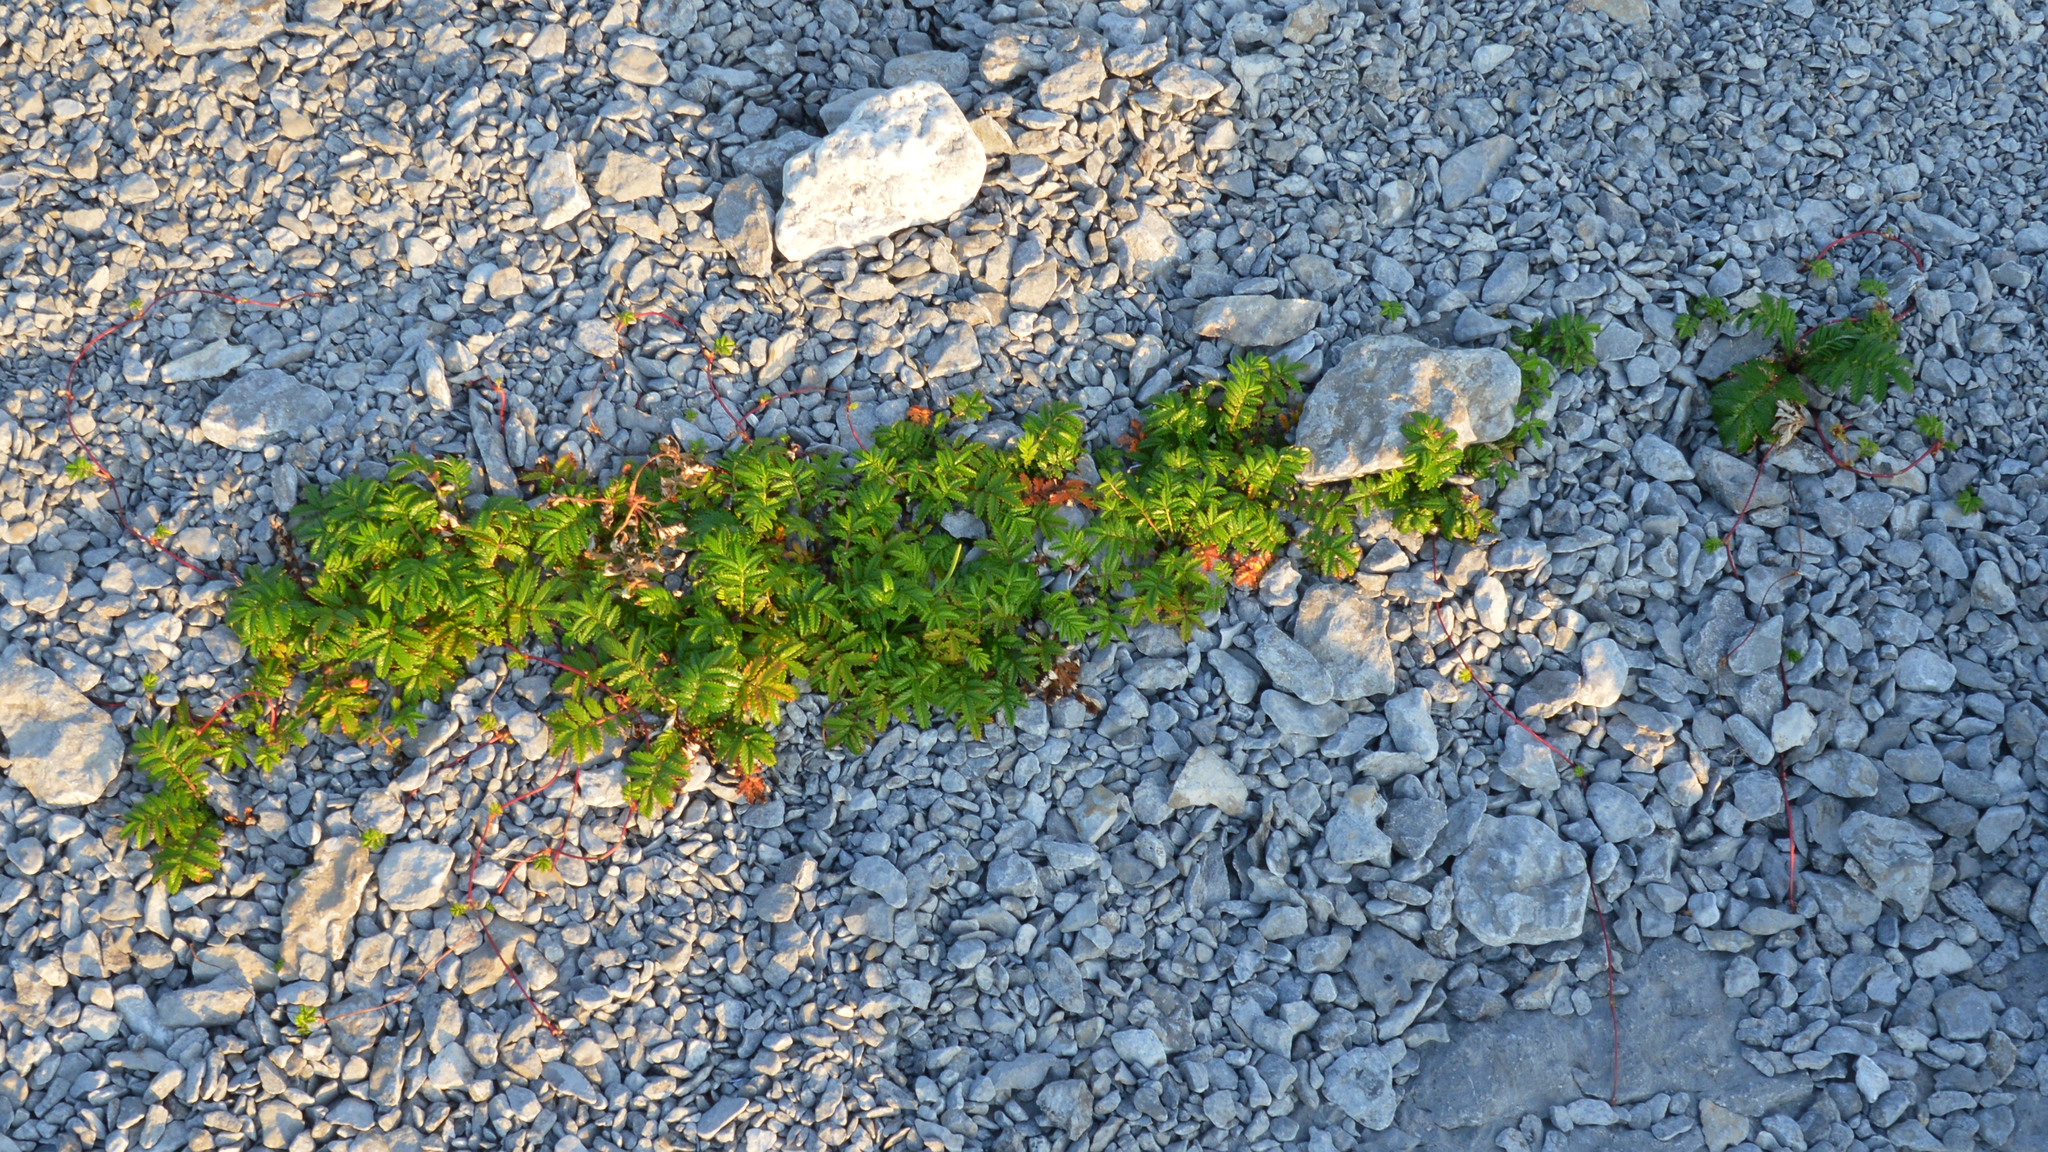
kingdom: Plantae
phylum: Tracheophyta
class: Magnoliopsida
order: Rosales
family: Rosaceae
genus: Argentina
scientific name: Argentina anserina
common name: Common silverweed
